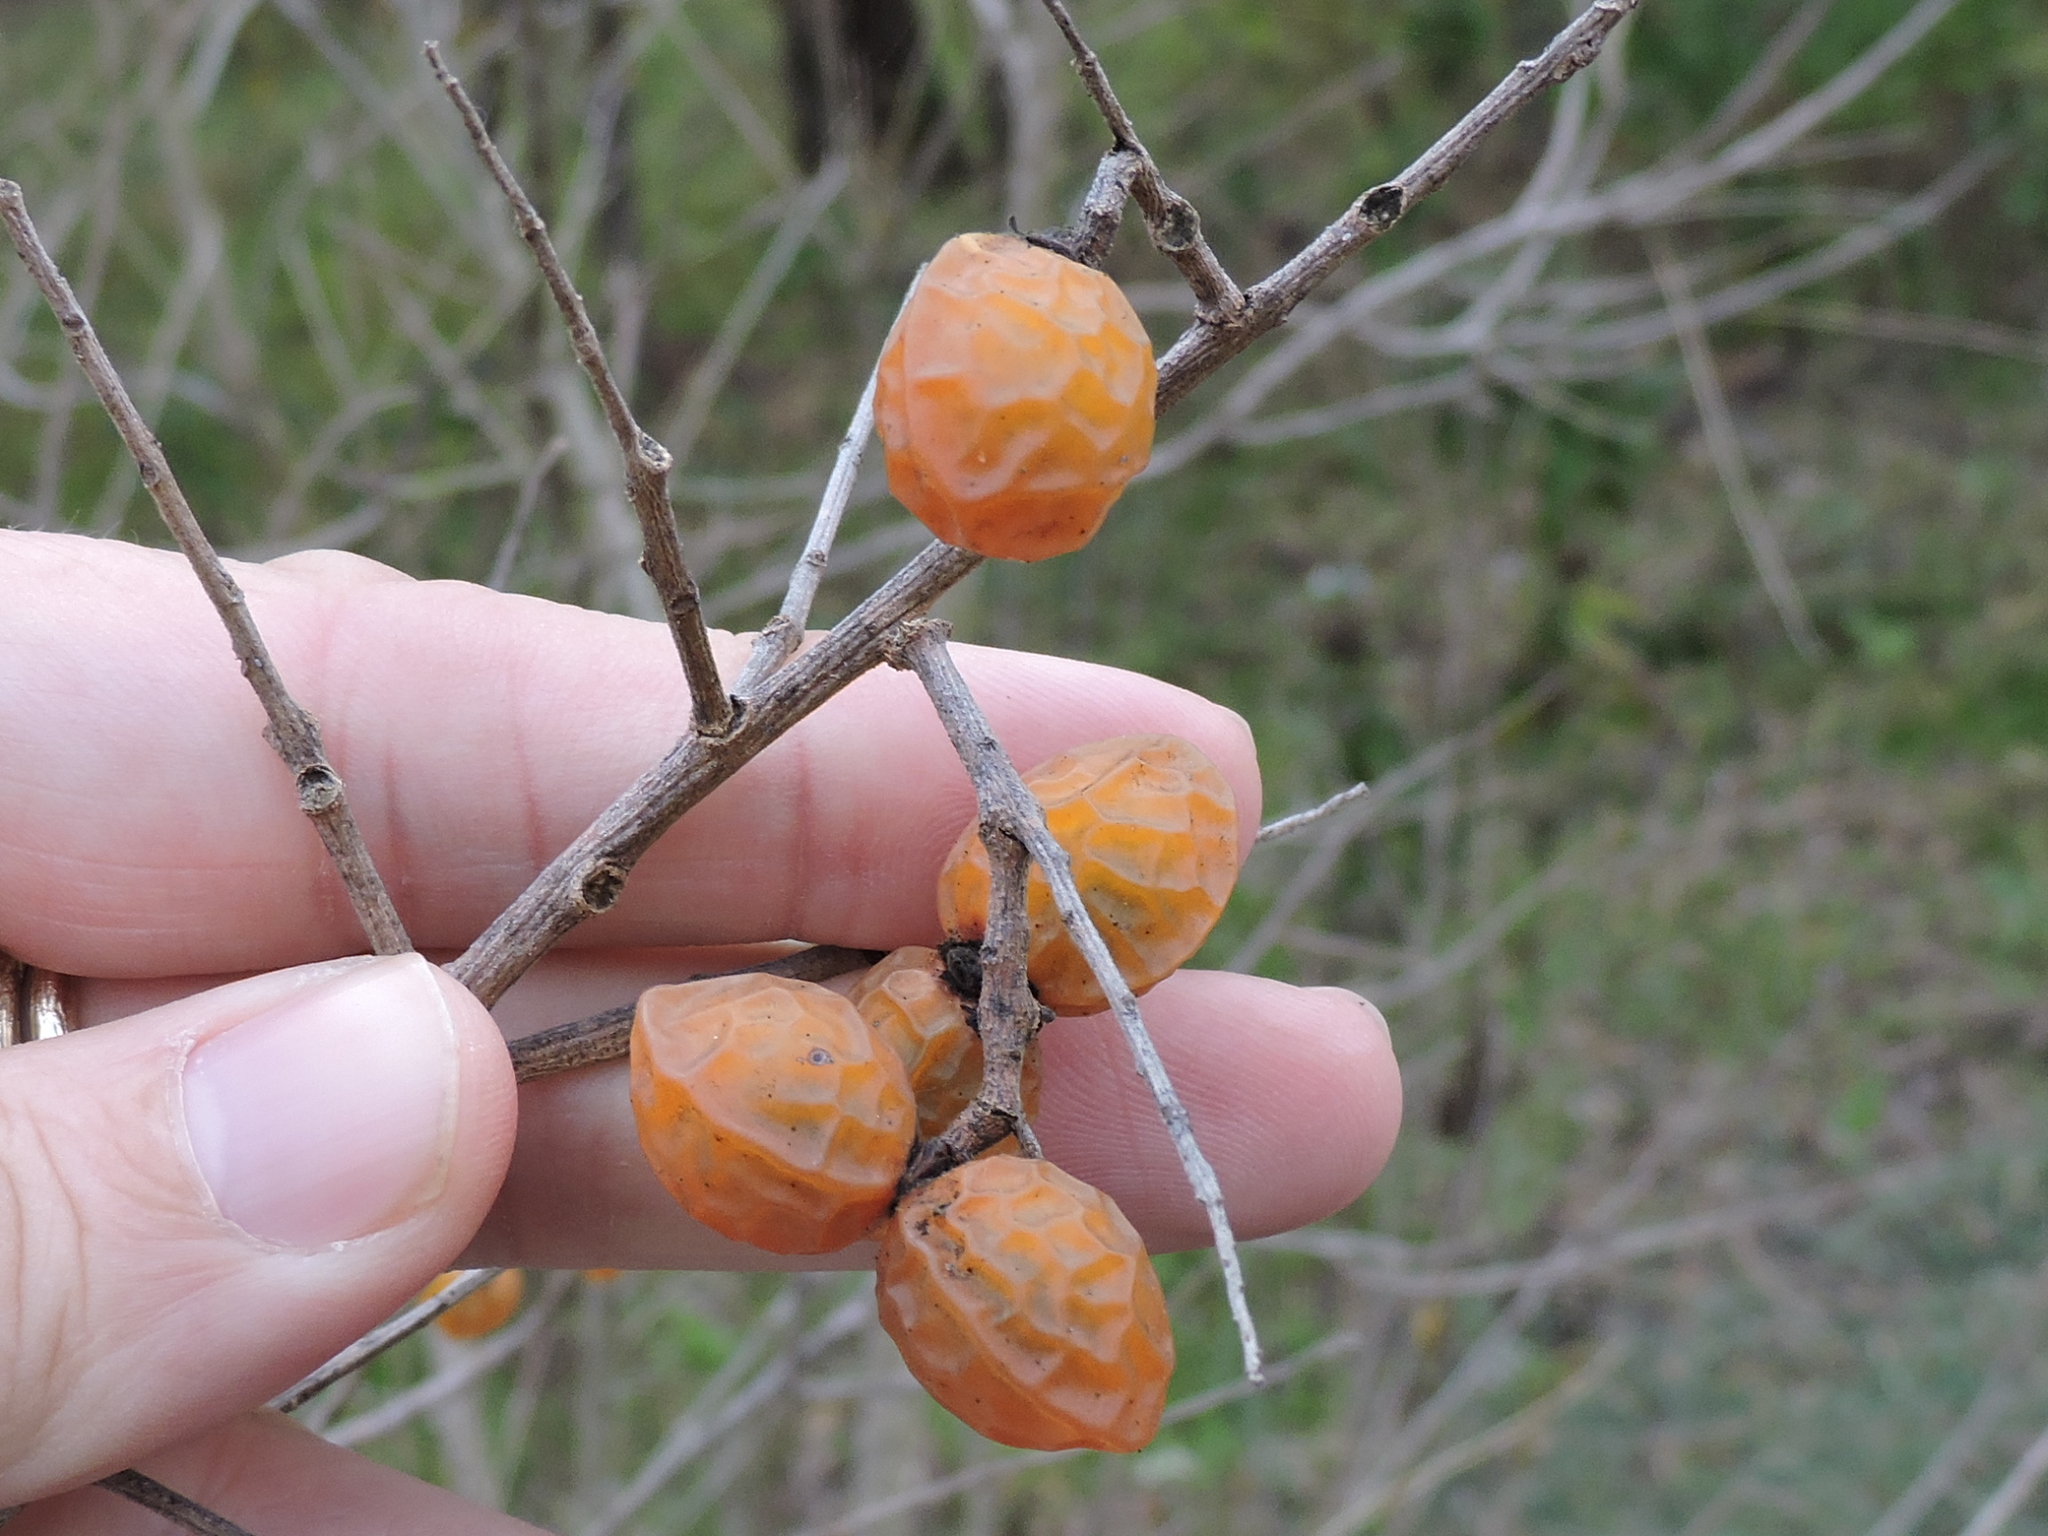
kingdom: Plantae
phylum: Tracheophyta
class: Magnoliopsida
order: Sapindales
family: Sapindaceae
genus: Sapindus
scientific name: Sapindus drummondii
